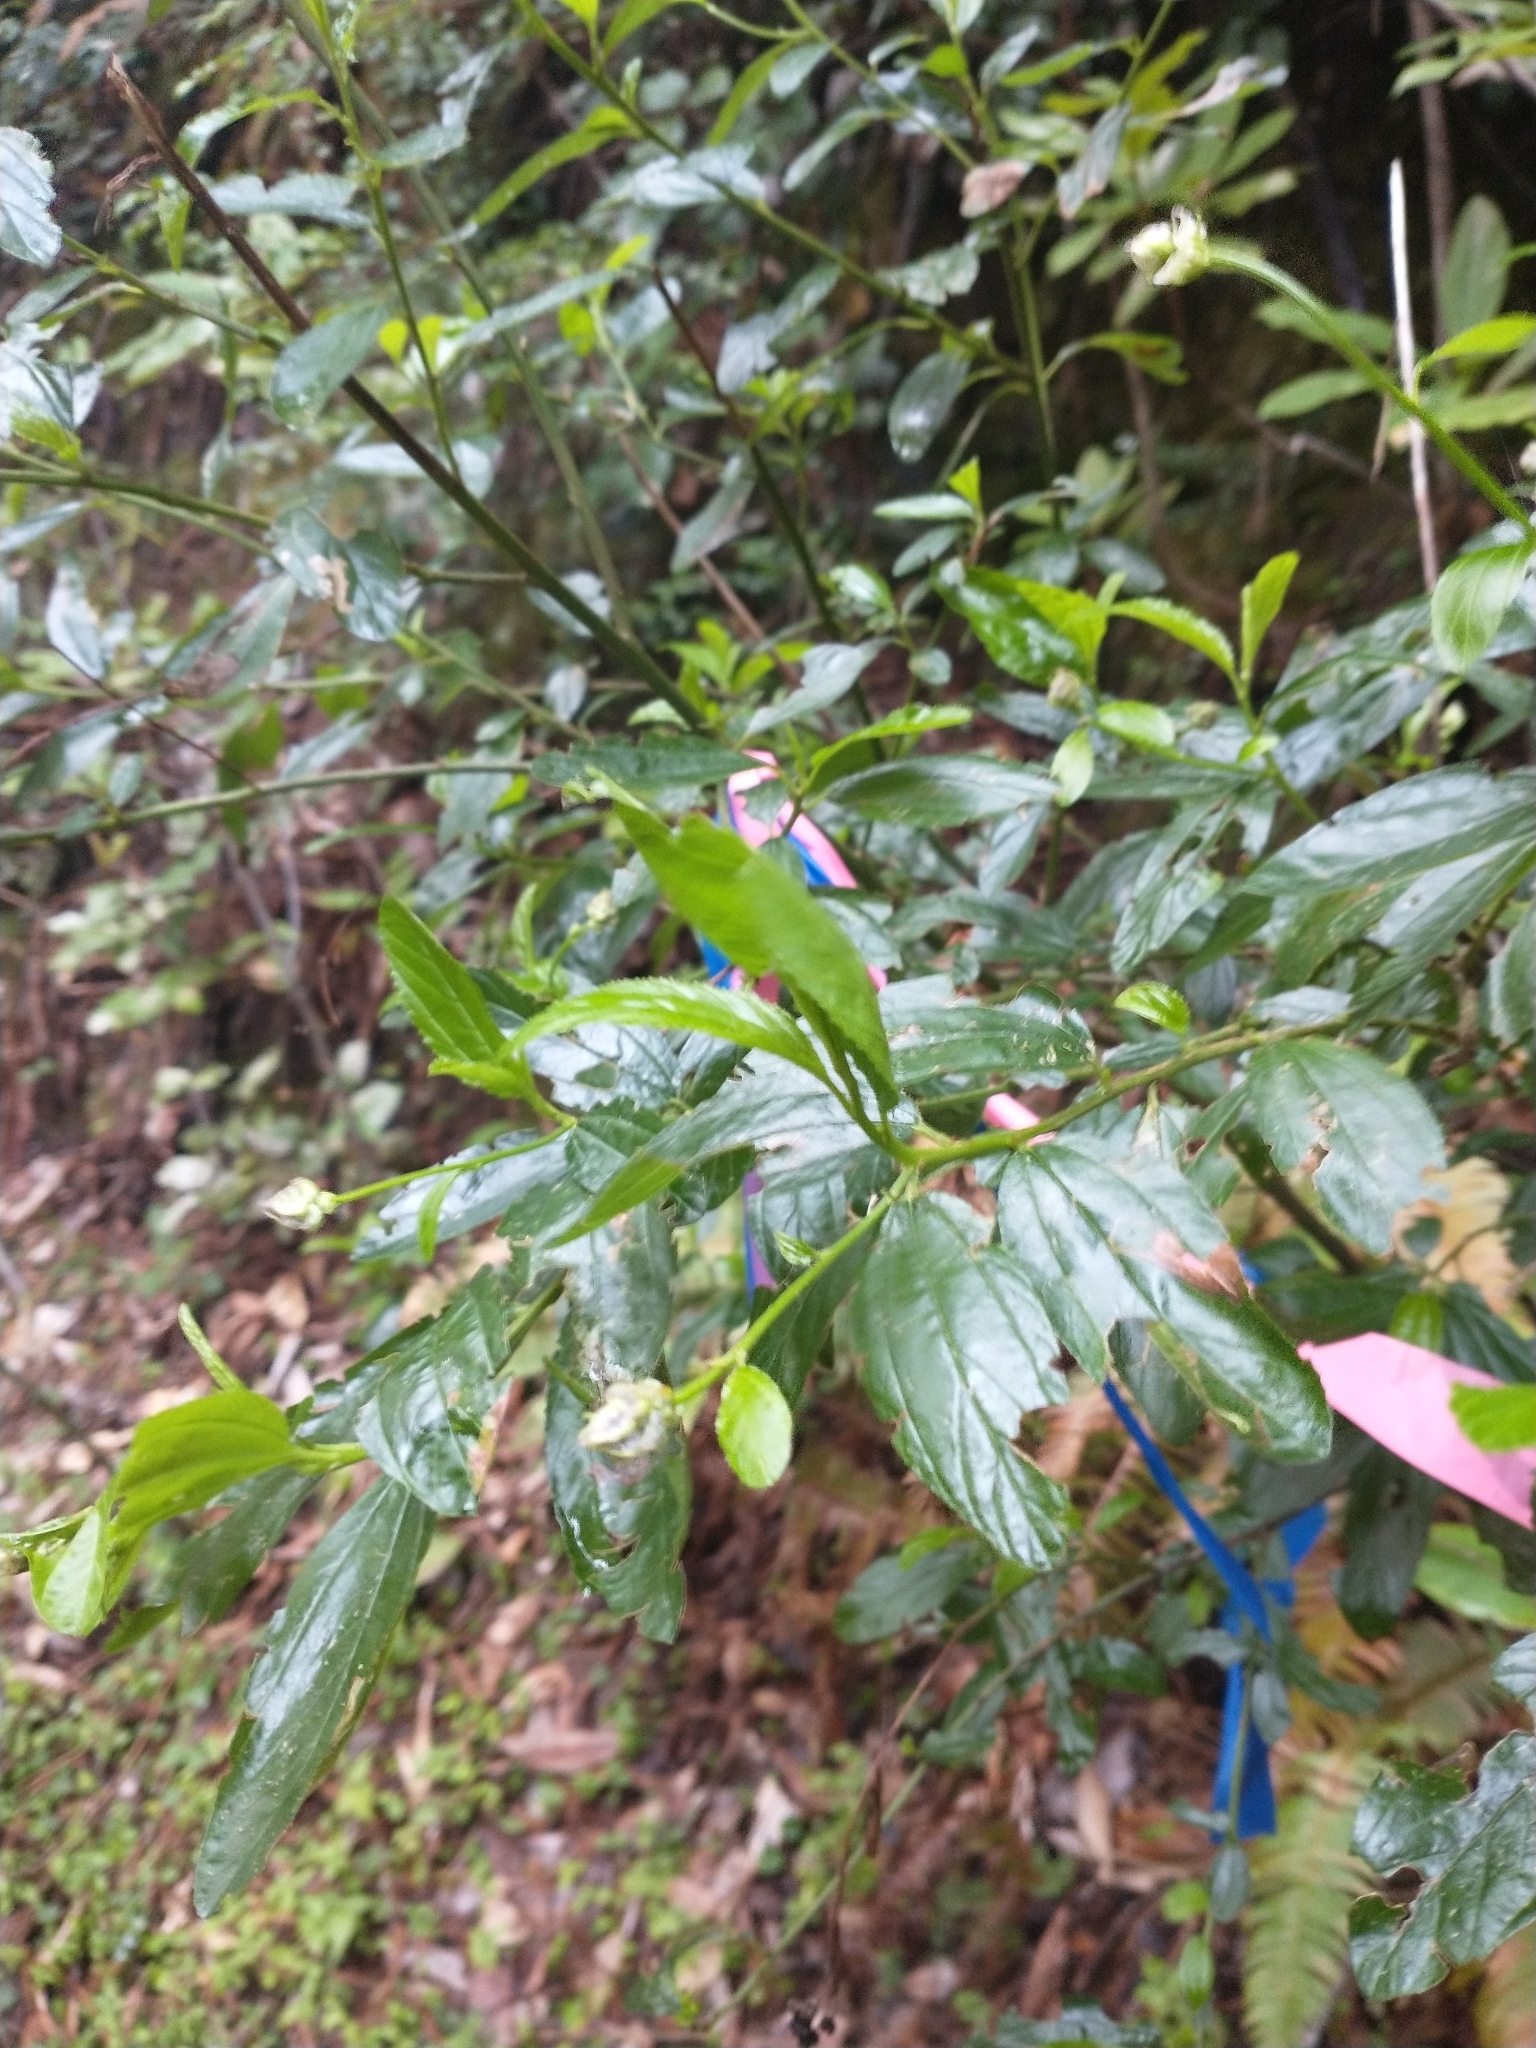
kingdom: Plantae
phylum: Tracheophyta
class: Magnoliopsida
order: Rosales
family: Rhamnaceae
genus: Ceanothus
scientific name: Ceanothus thyrsiflorus
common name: California-lilac
